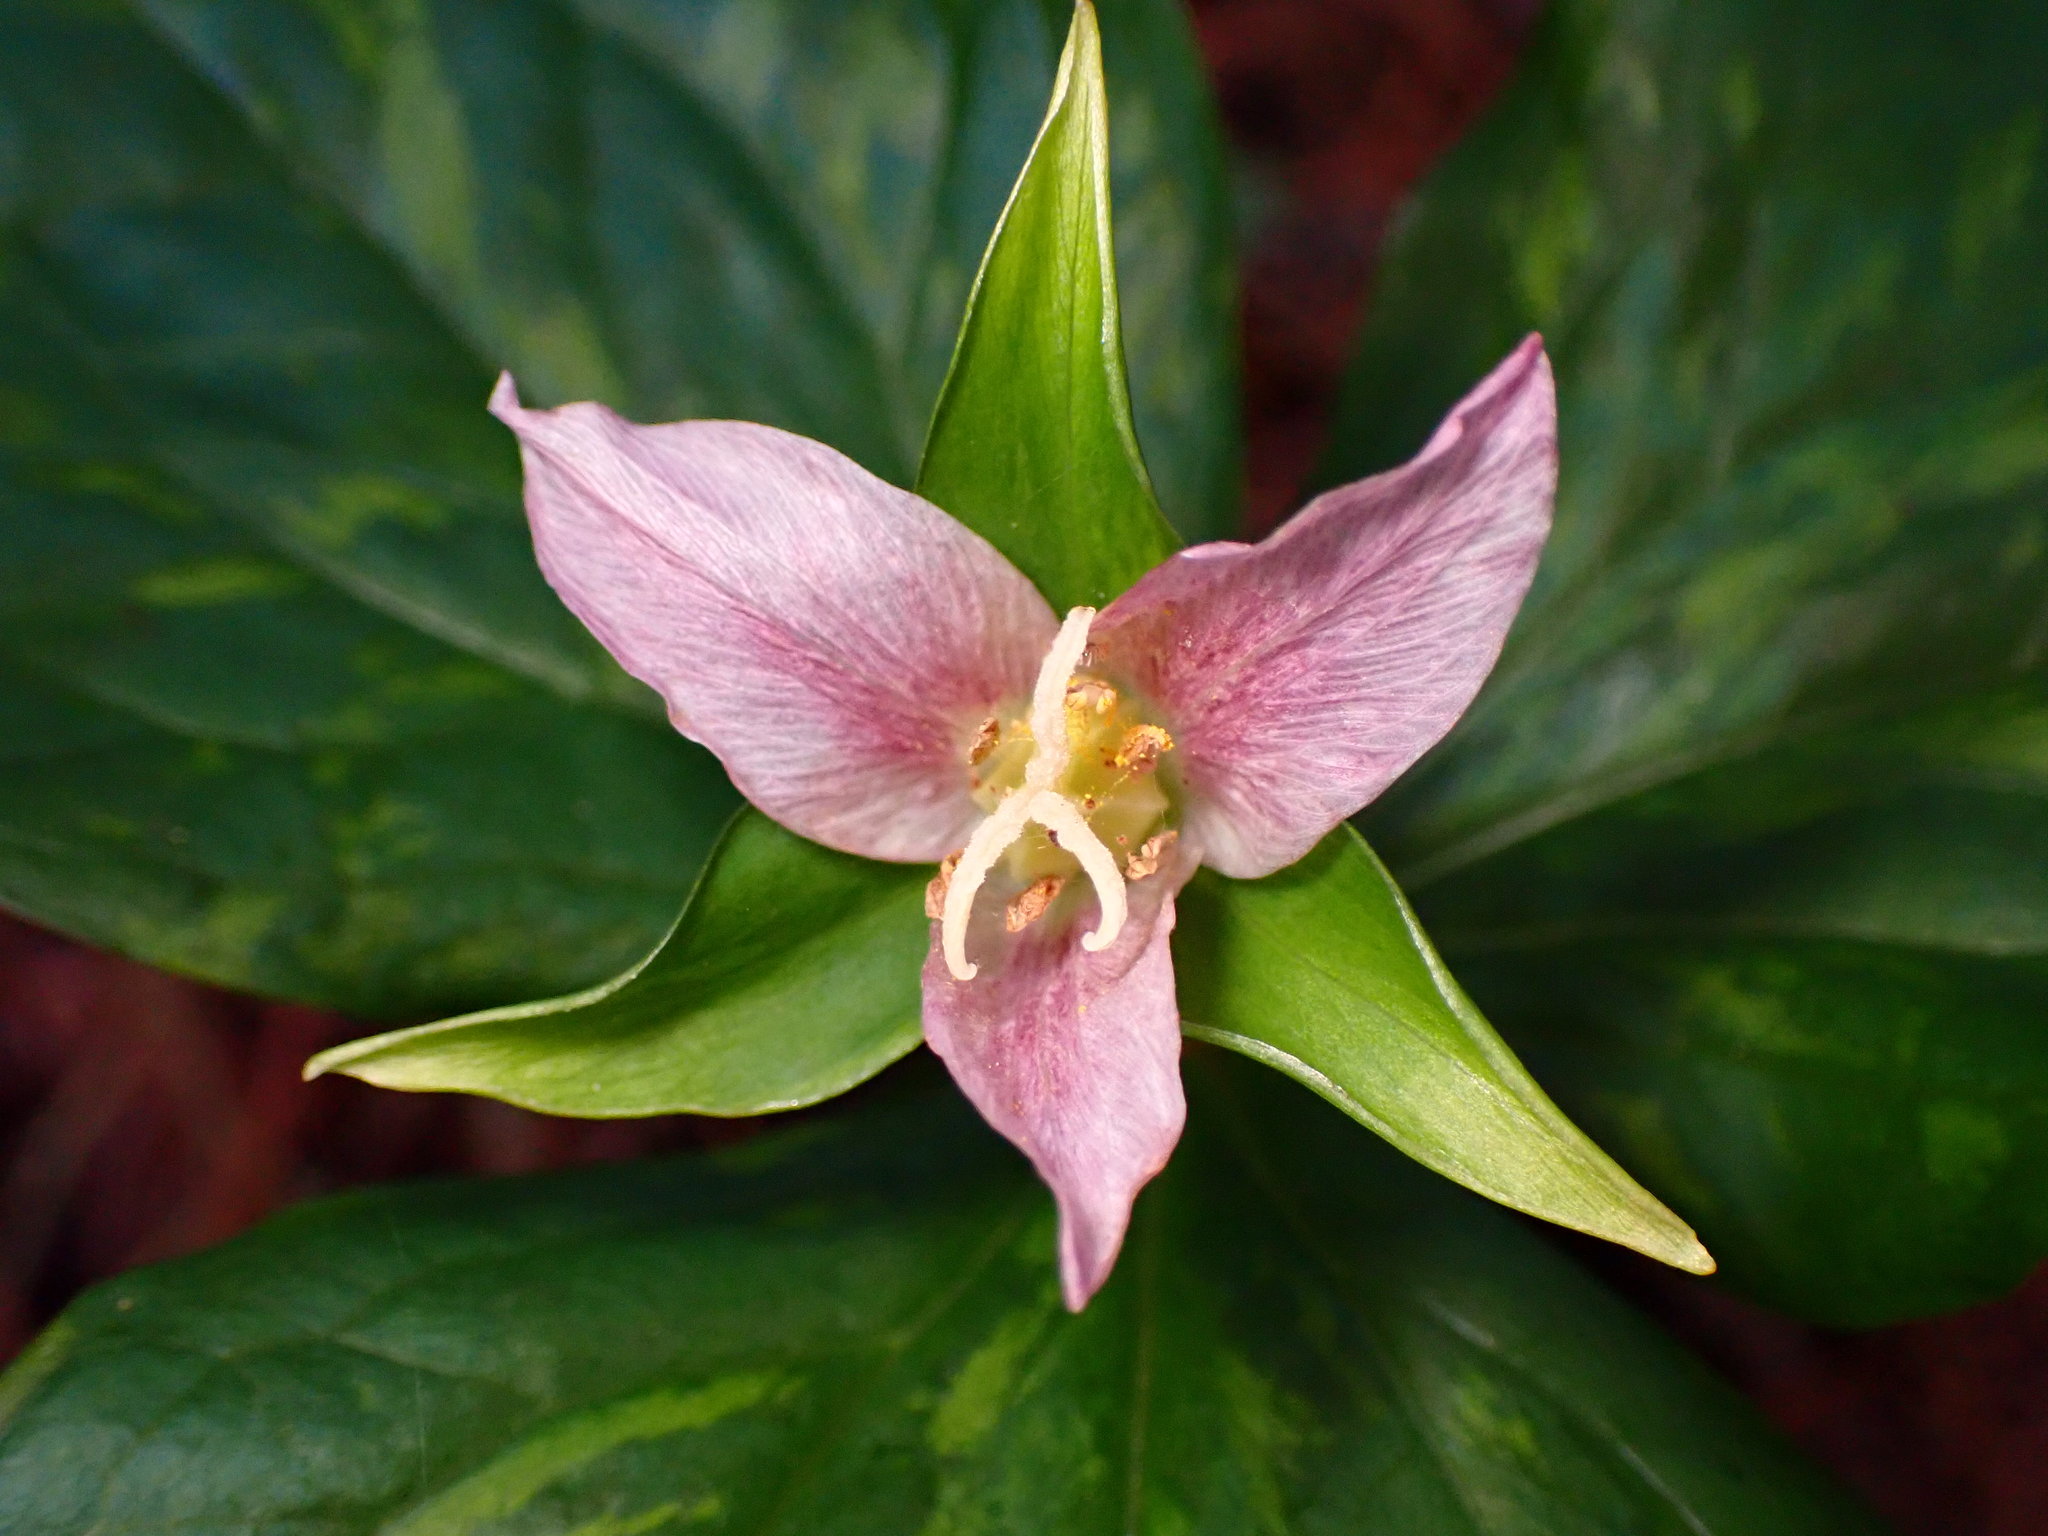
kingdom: Plantae
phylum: Tracheophyta
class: Liliopsida
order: Liliales
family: Melanthiaceae
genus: Trillium
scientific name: Trillium ovatum
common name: Pacific trillium
